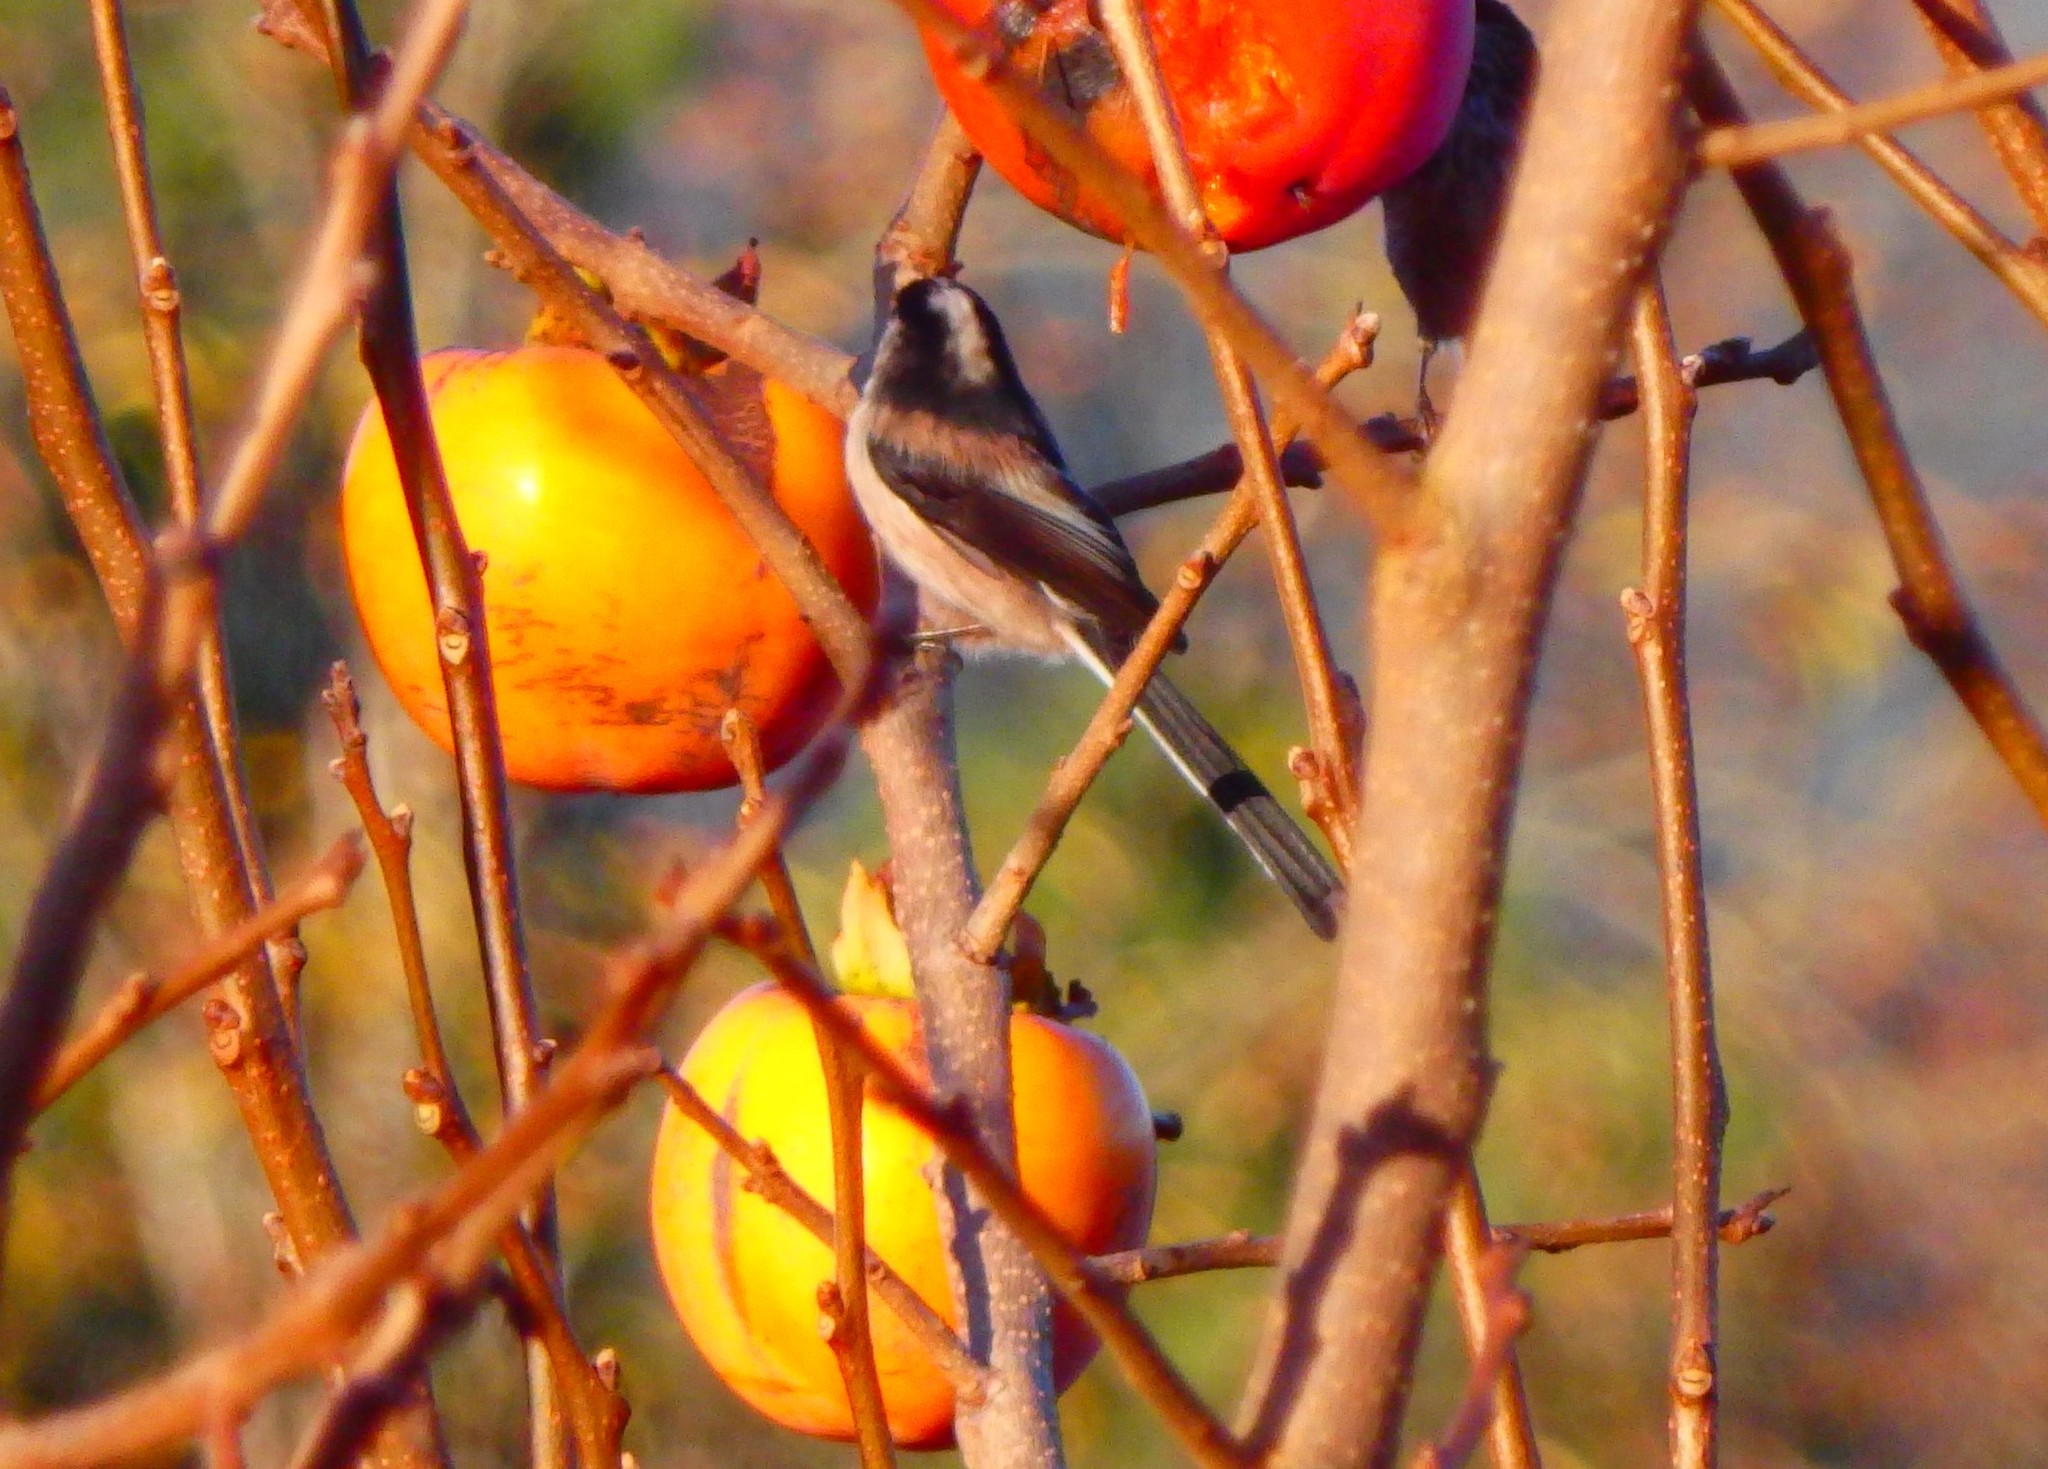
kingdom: Animalia
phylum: Chordata
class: Aves
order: Passeriformes
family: Aegithalidae
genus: Aegithalos
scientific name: Aegithalos caudatus
